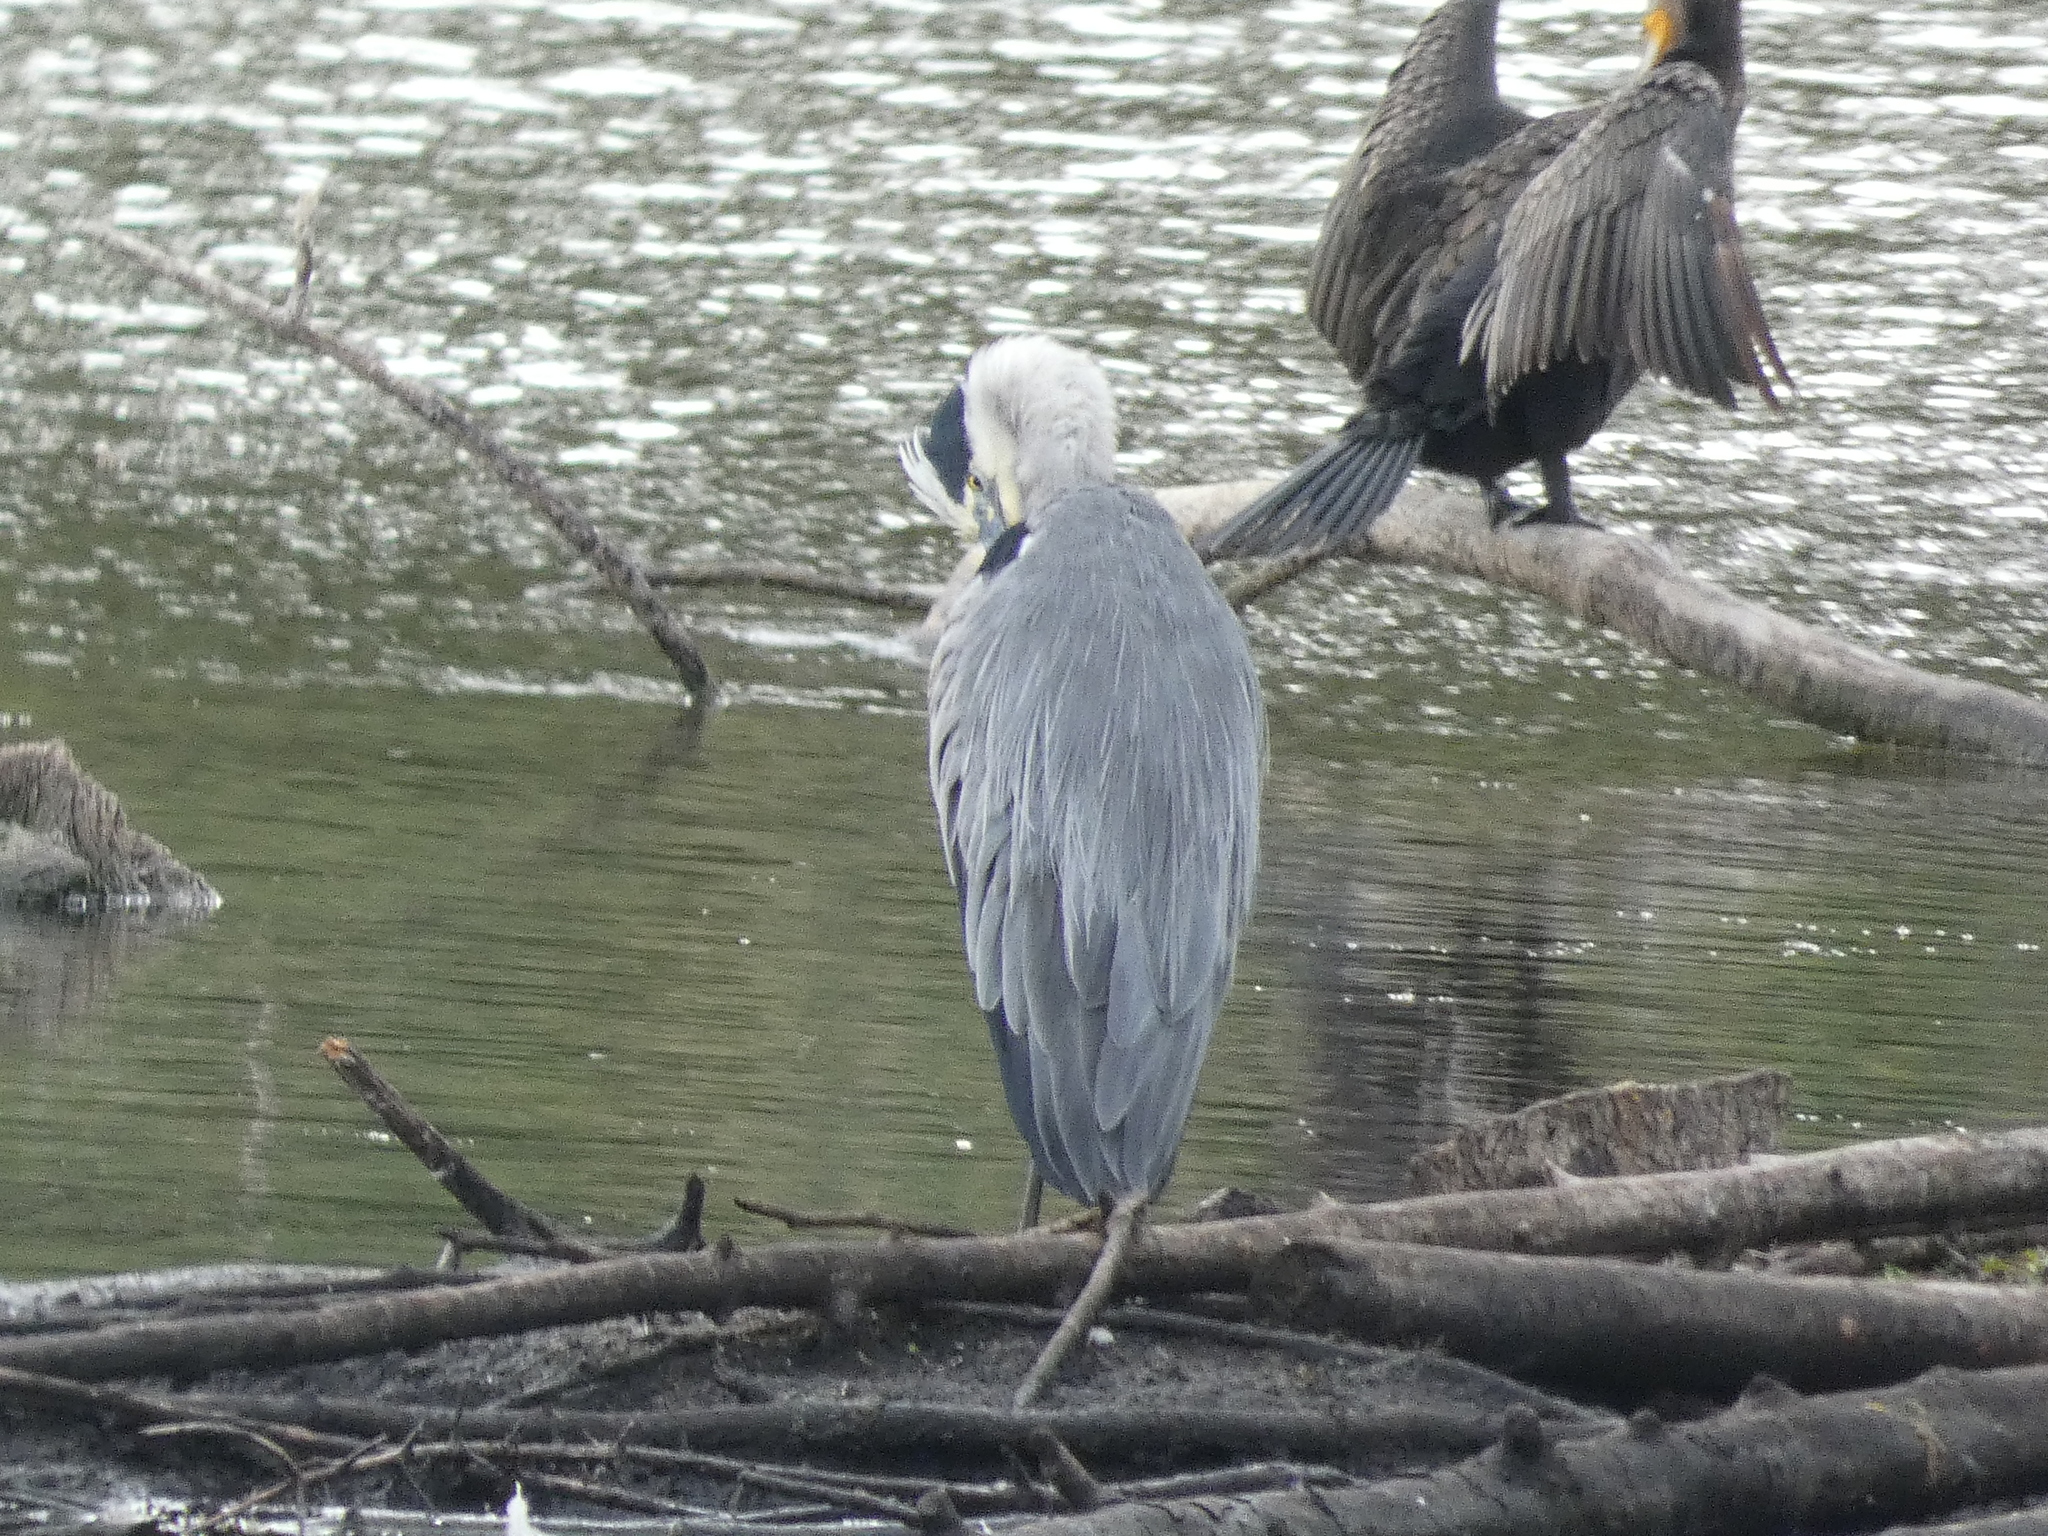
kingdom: Animalia
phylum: Chordata
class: Aves
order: Pelecaniformes
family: Ardeidae
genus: Ardea
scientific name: Ardea cinerea
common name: Grey heron
